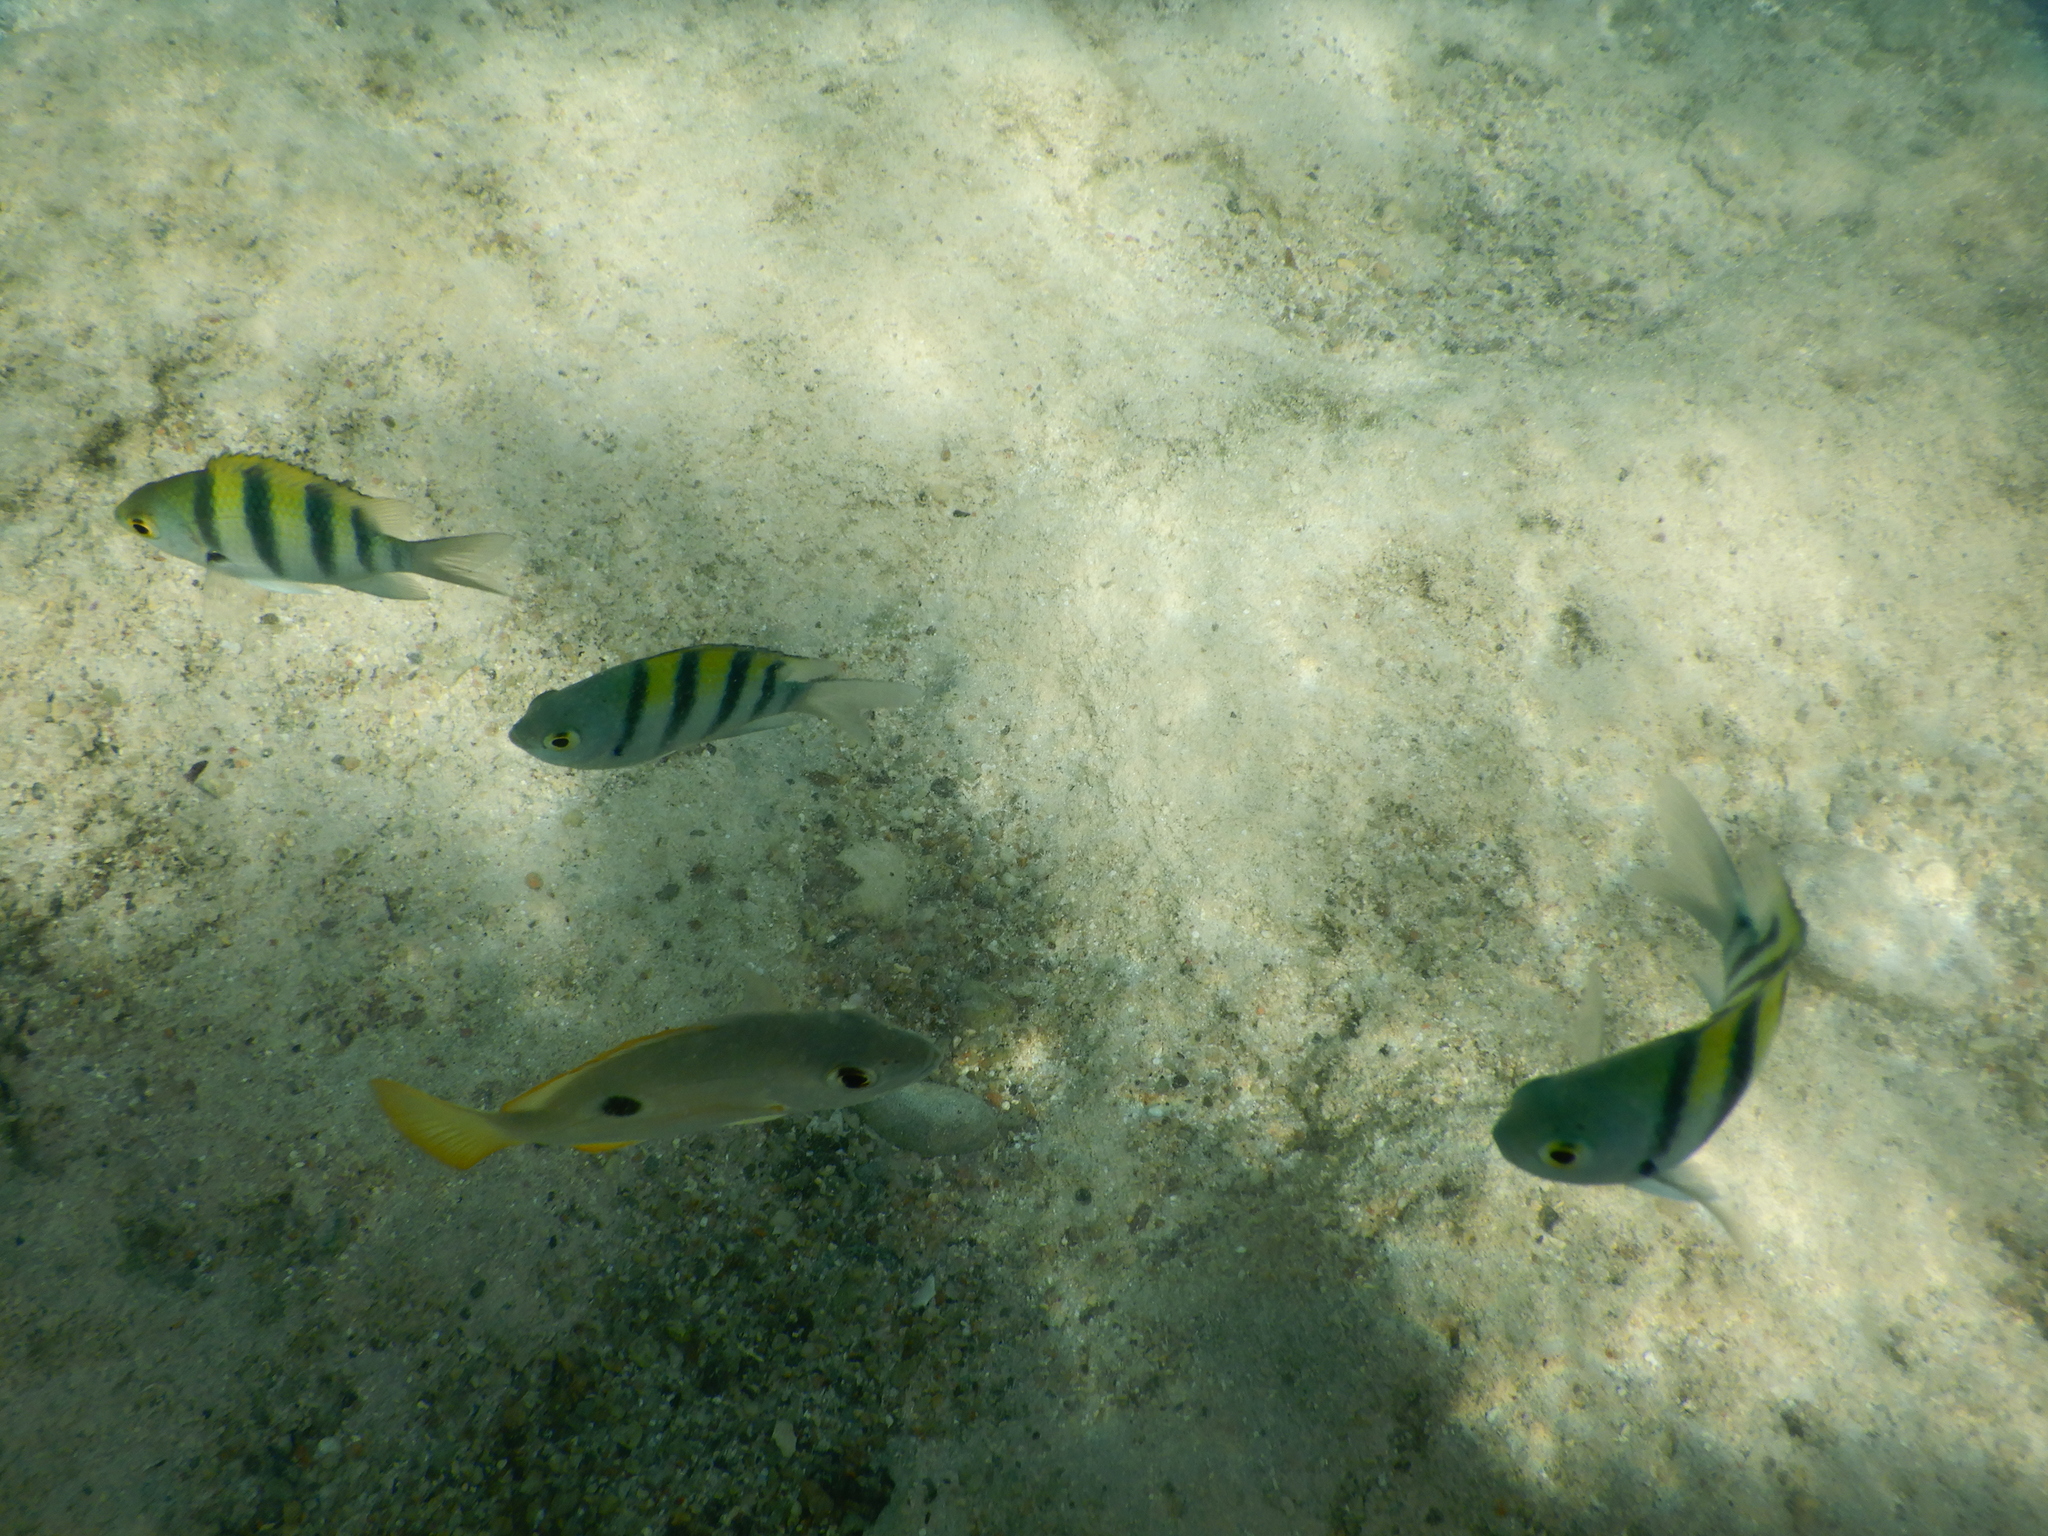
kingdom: Animalia
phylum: Chordata
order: Perciformes
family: Pomacentridae
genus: Abudefduf
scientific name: Abudefduf vaigiensis
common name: Indo-pacific sergeant
